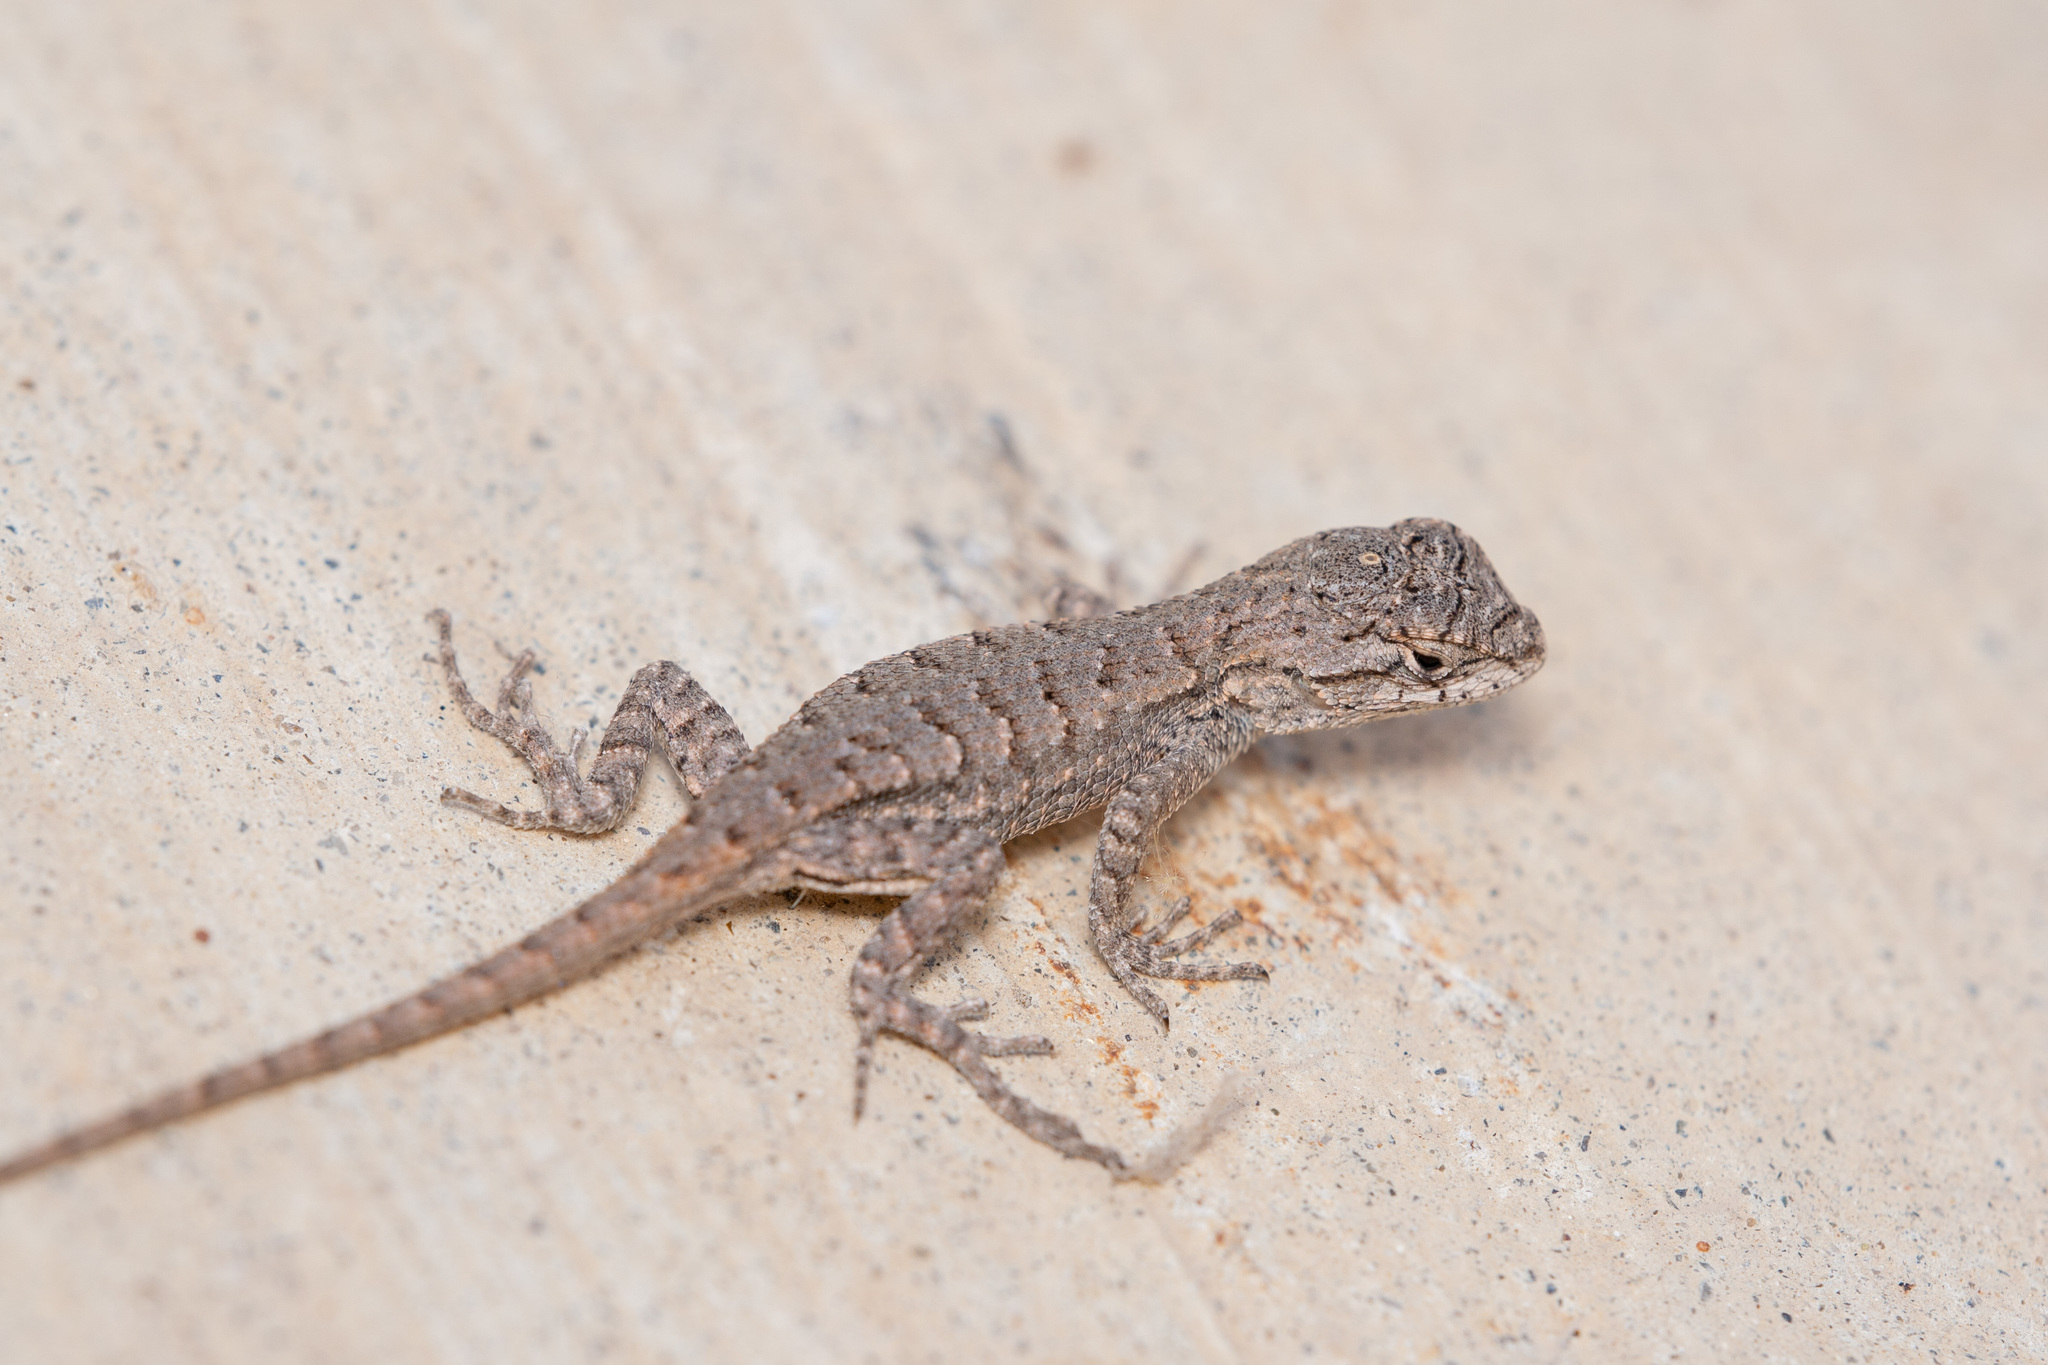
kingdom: Animalia
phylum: Chordata
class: Squamata
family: Phrynosomatidae
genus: Sceloporus
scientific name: Sceloporus occidentalis
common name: Western fence lizard
